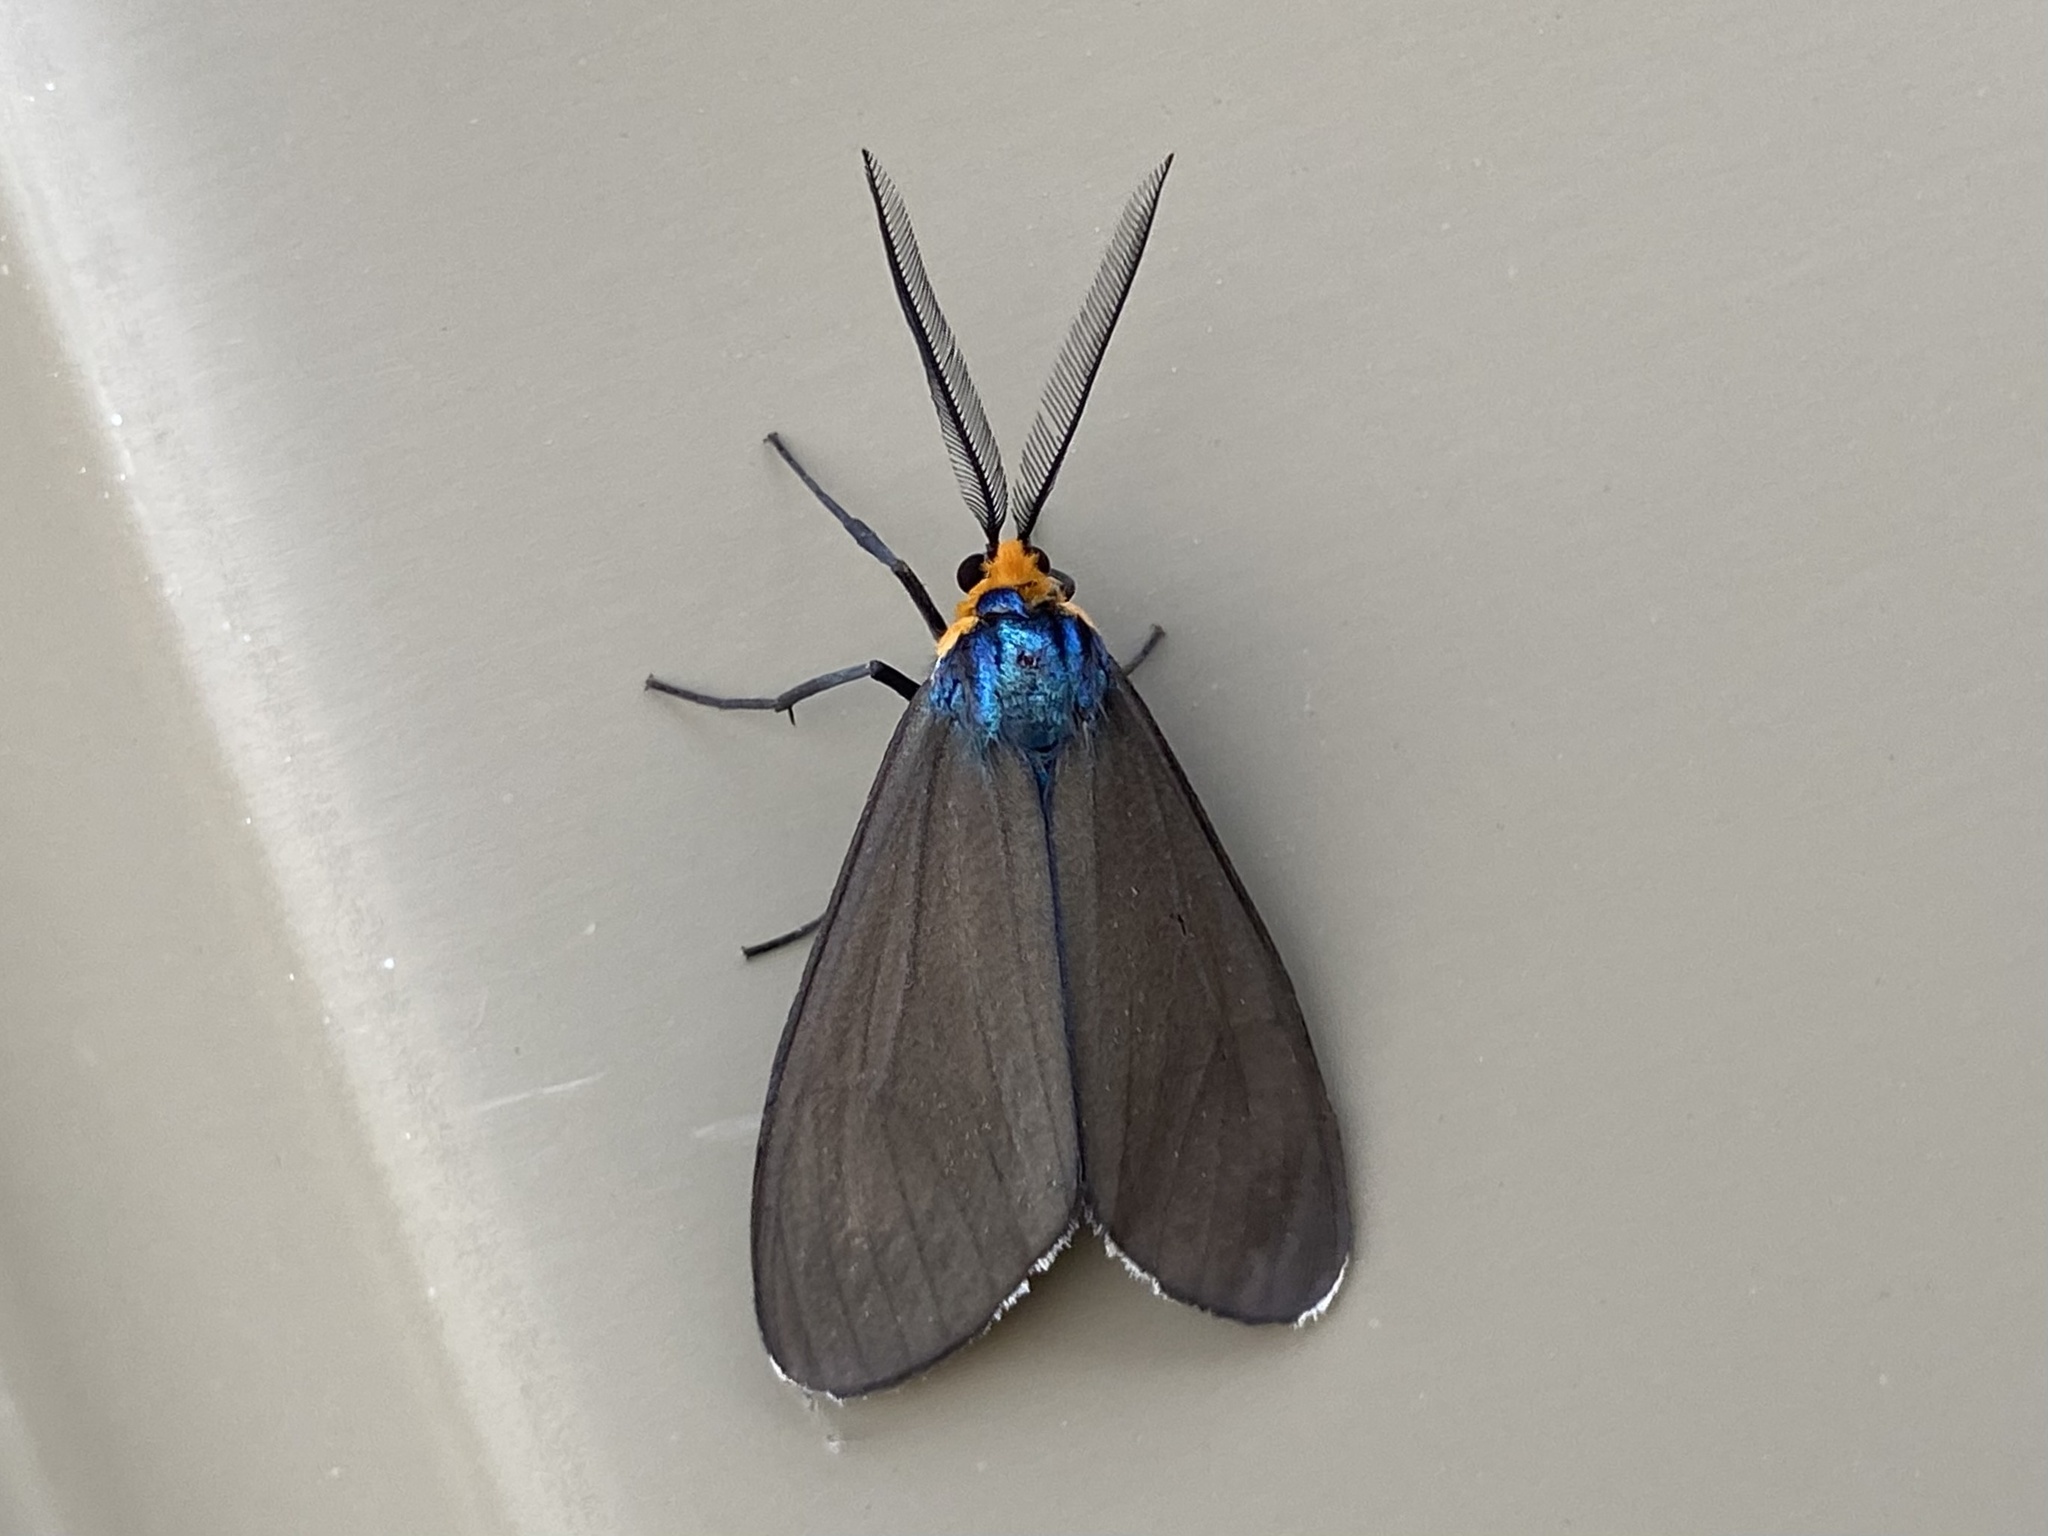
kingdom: Animalia
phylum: Arthropoda
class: Insecta
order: Lepidoptera
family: Erebidae
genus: Ctenucha
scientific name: Ctenucha virginica
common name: Virginia ctenucha moth
